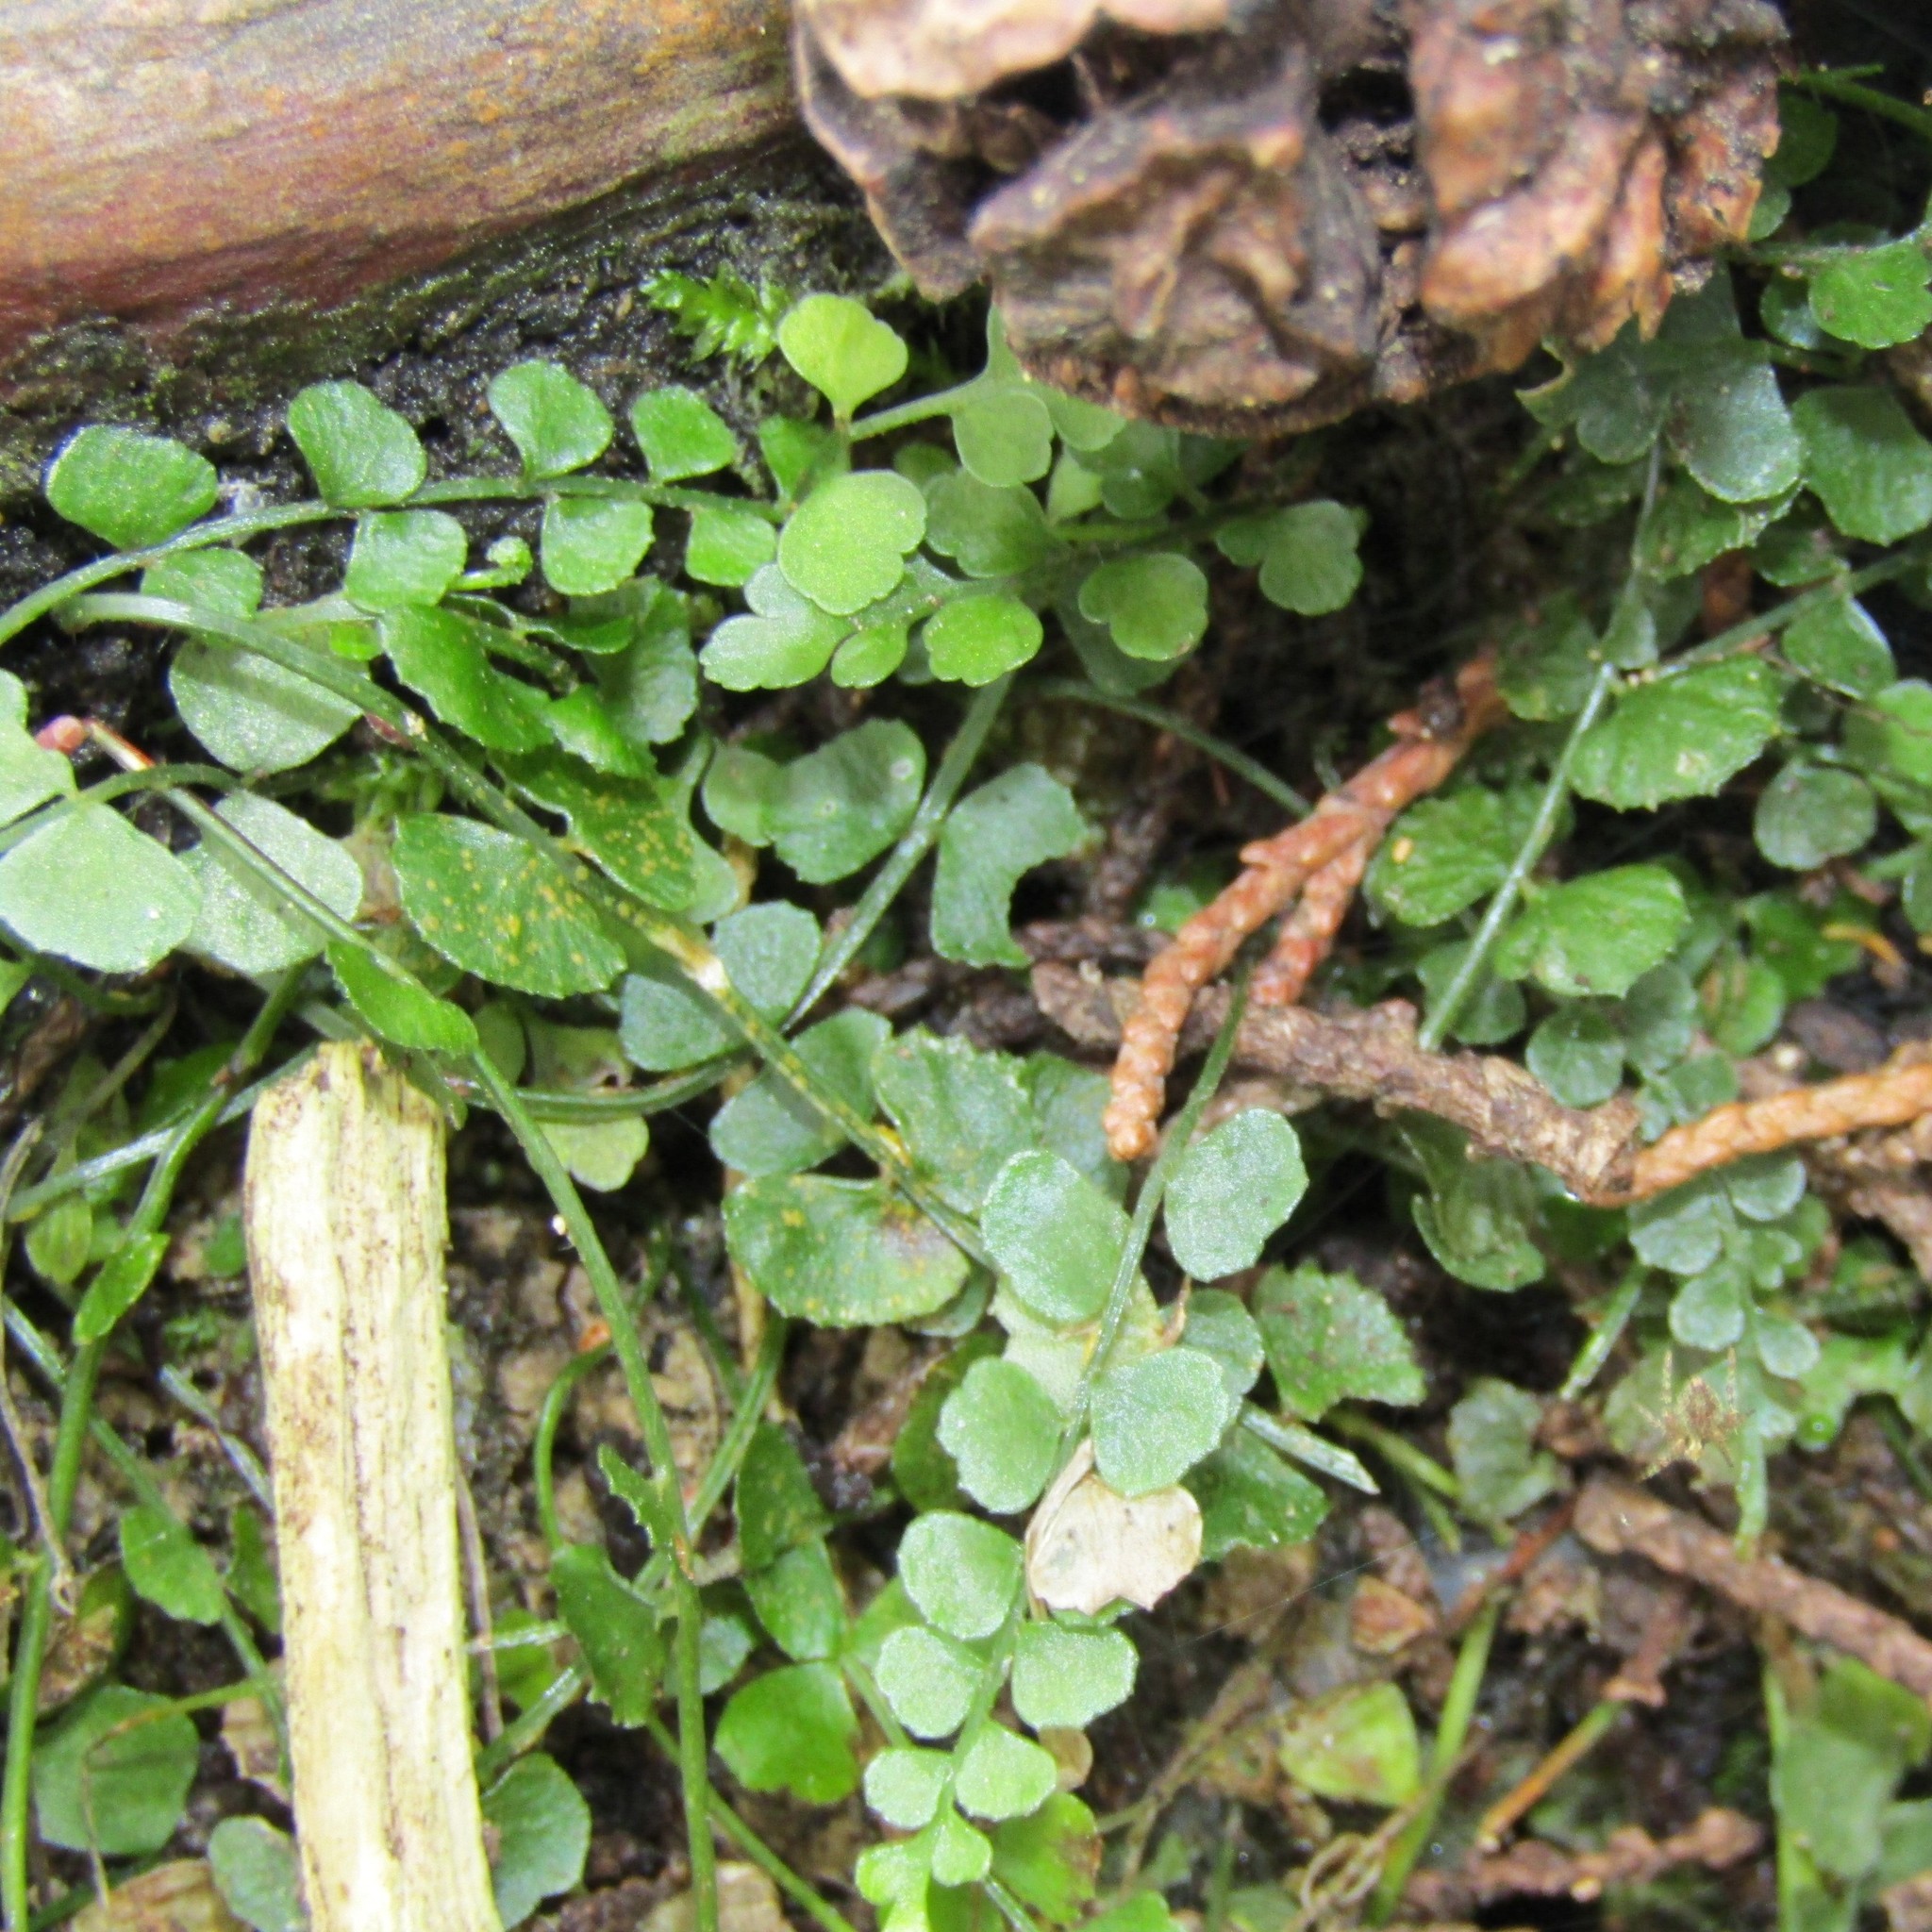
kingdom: Plantae
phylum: Tracheophyta
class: Polypodiopsida
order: Polypodiales
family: Aspleniaceae
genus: Asplenium
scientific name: Asplenium flabellifolium
